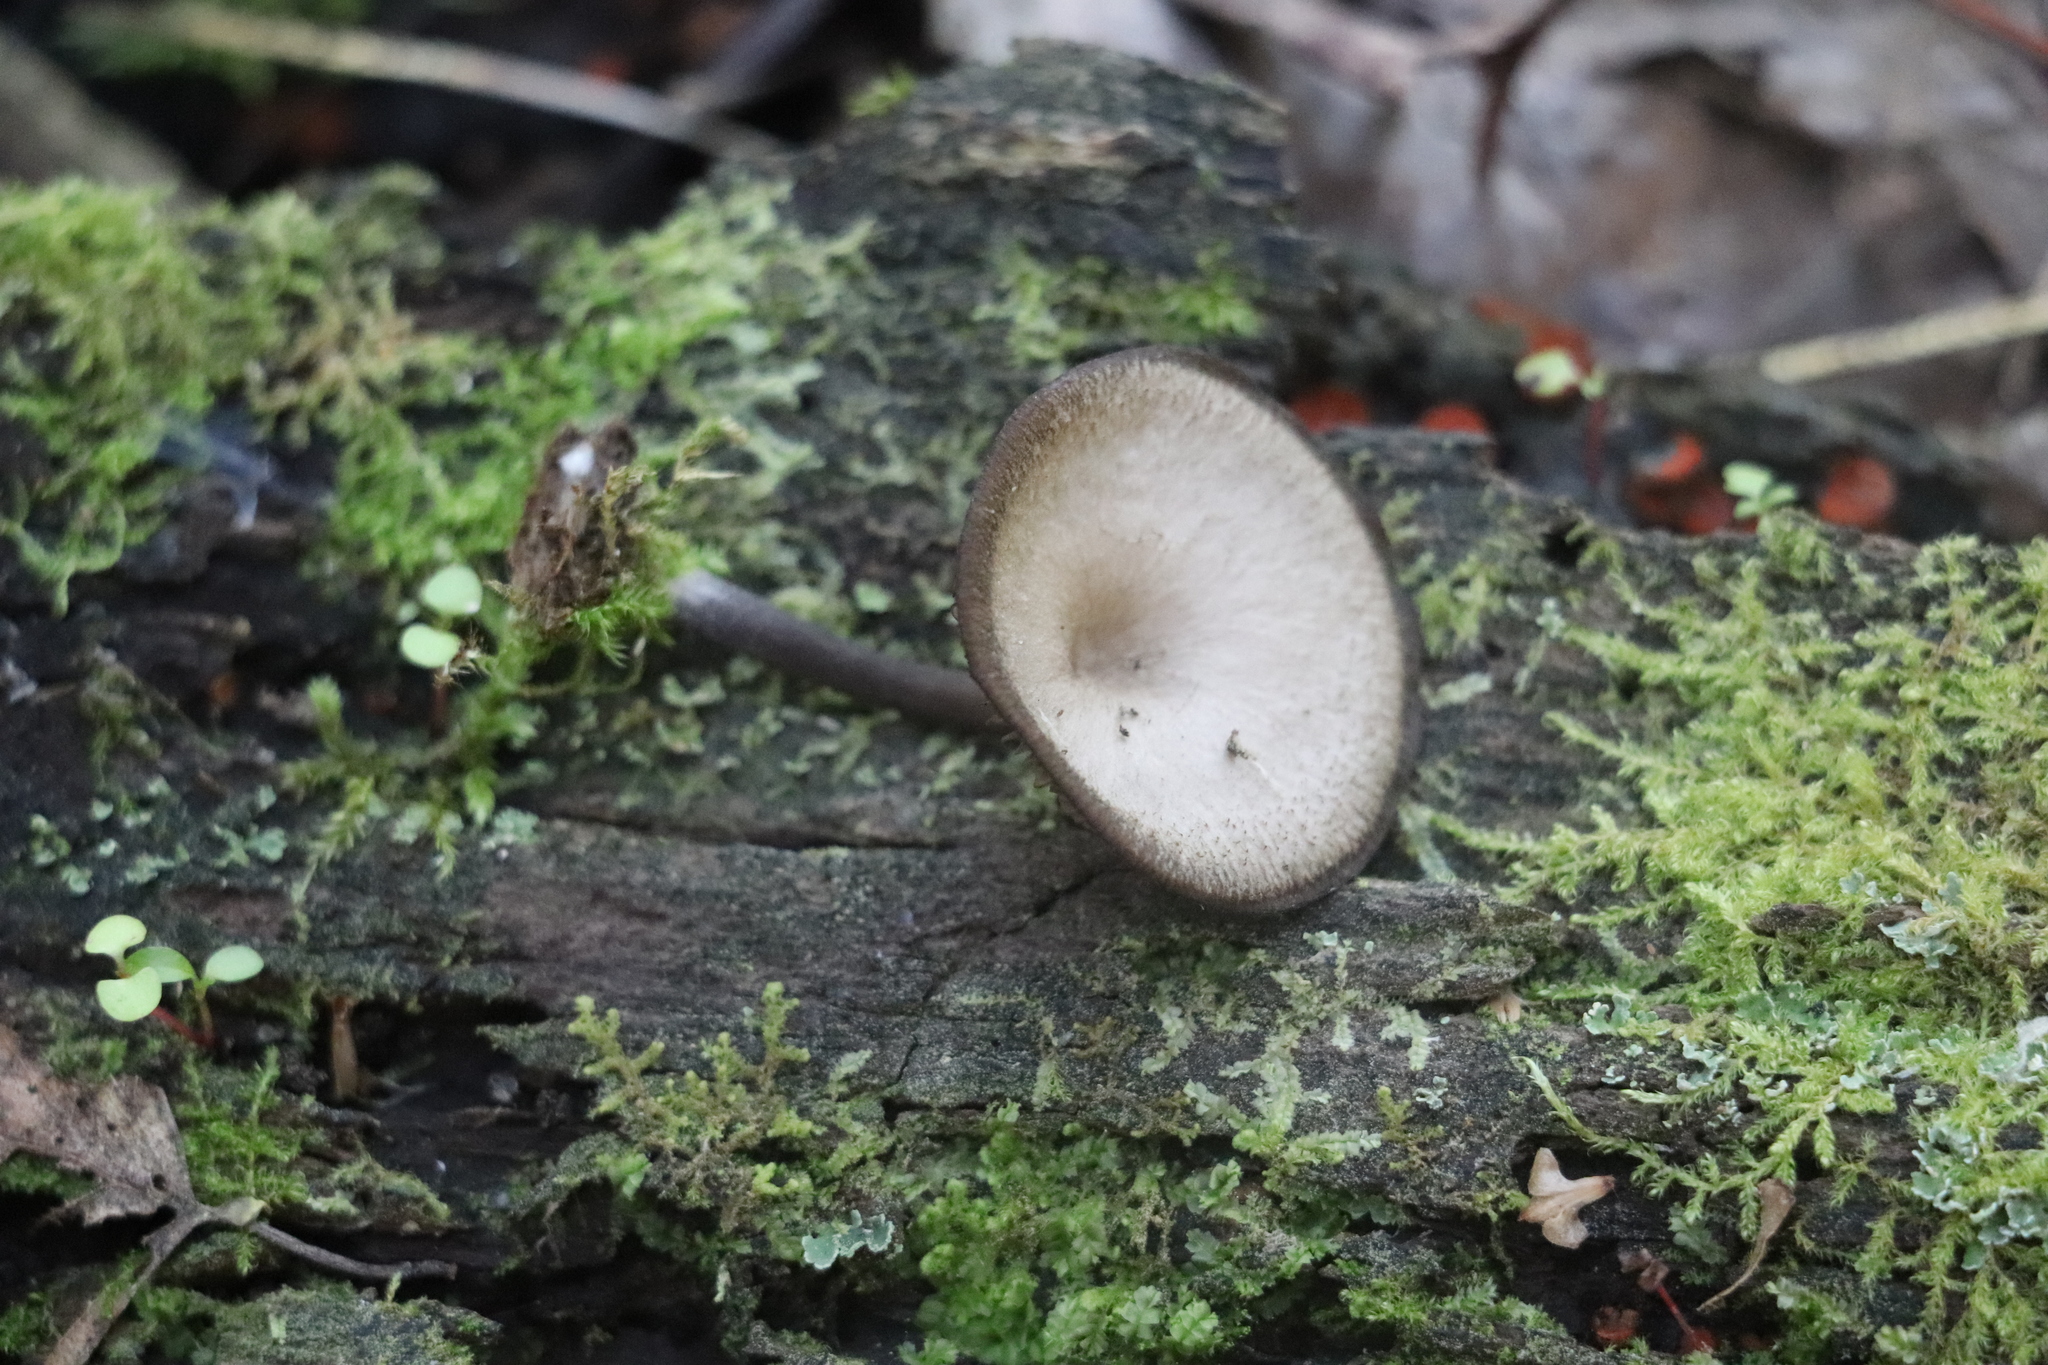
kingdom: Fungi
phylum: Basidiomycota
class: Agaricomycetes
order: Agaricales
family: Hygrophoraceae
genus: Arrhenia
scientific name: Arrhenia epichysium
